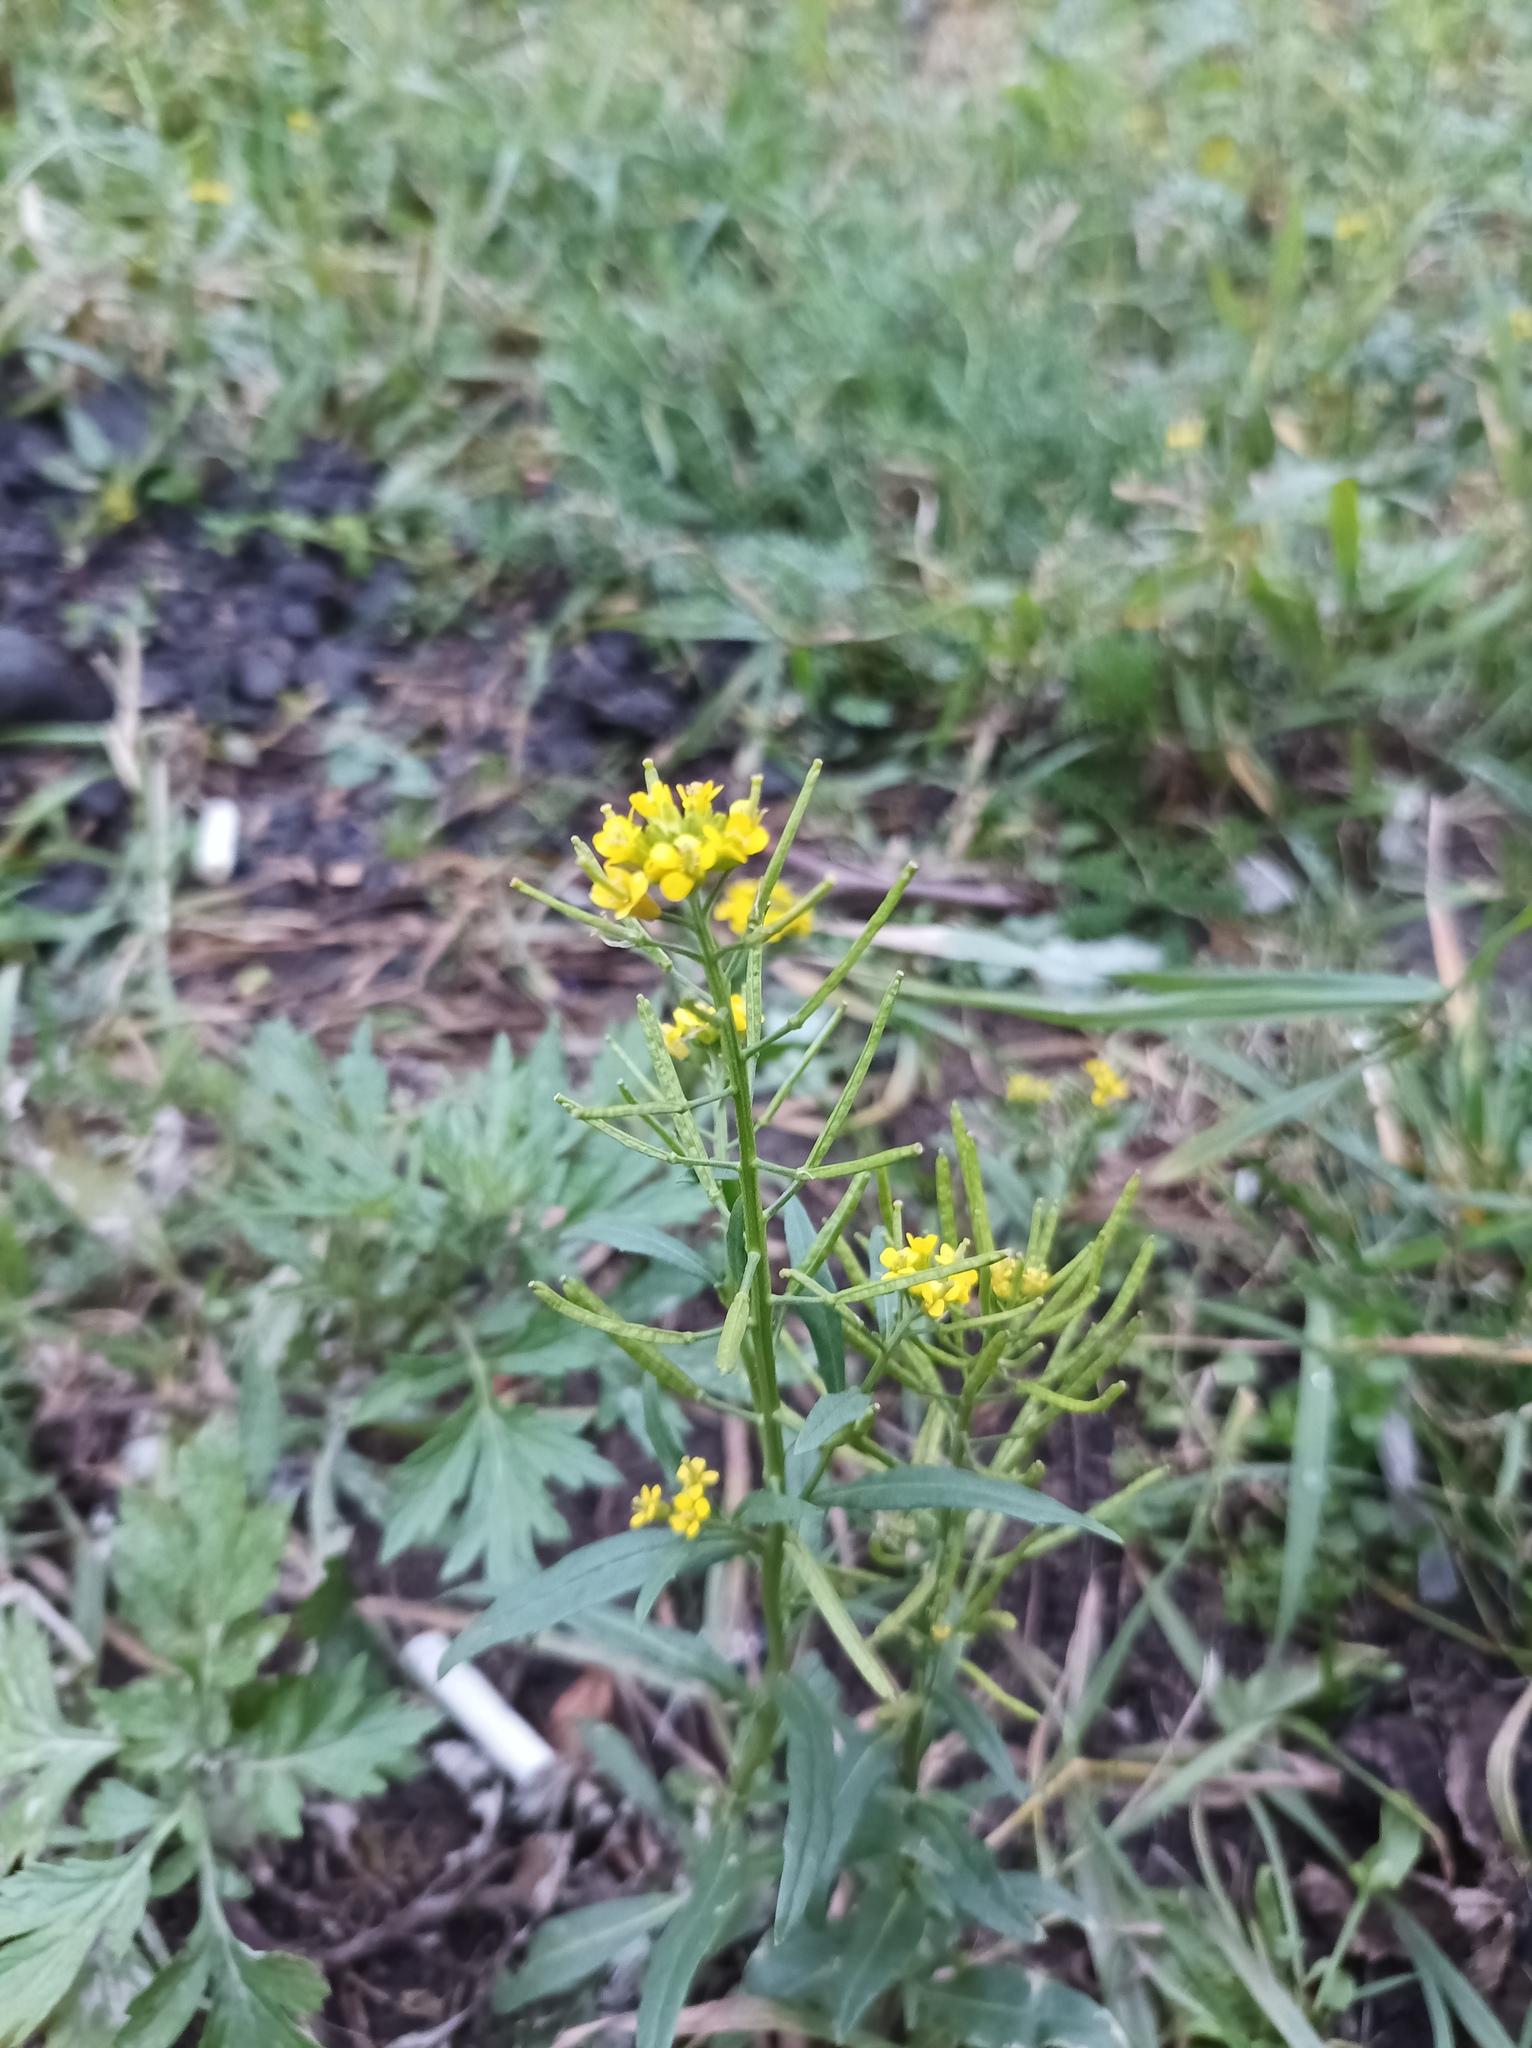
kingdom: Plantae
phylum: Tracheophyta
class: Magnoliopsida
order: Brassicales
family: Brassicaceae
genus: Erysimum
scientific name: Erysimum cheiranthoides
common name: Treacle mustard
